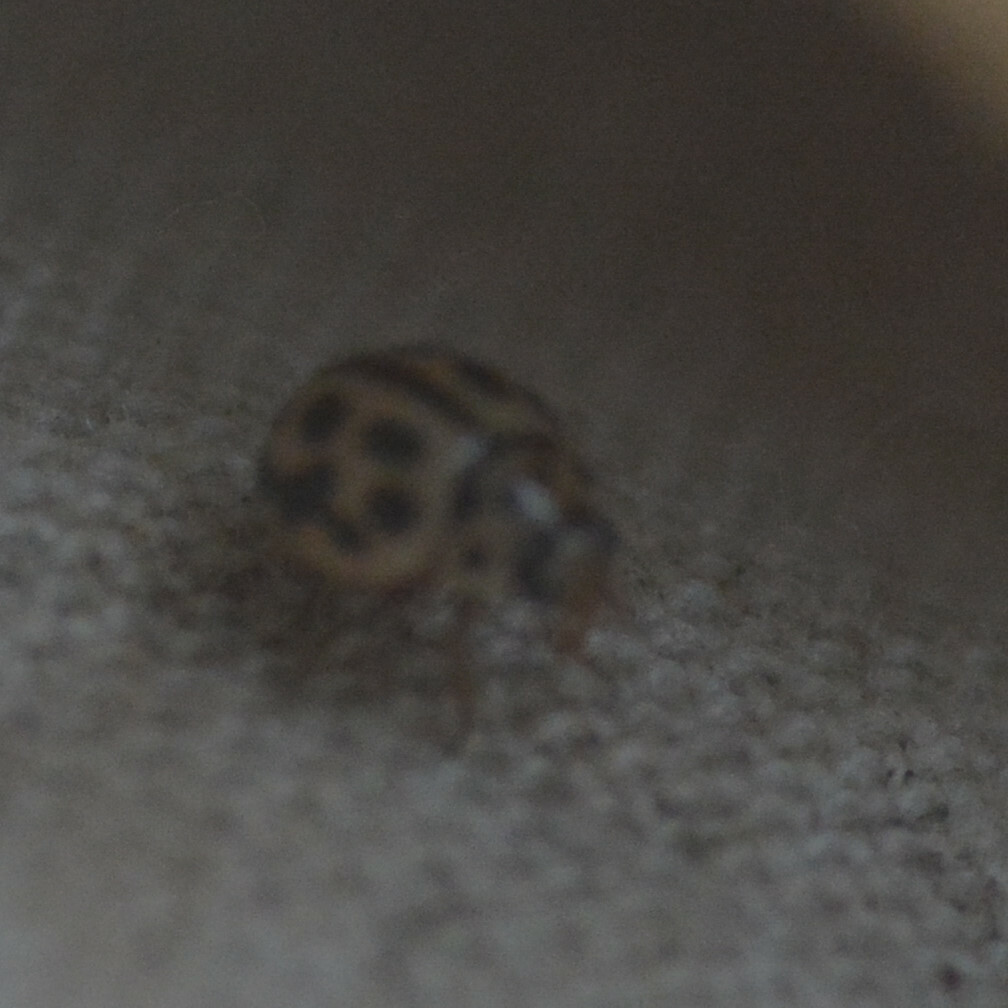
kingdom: Animalia
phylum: Arthropoda
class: Insecta
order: Coleoptera
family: Coccinellidae
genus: Tytthaspis
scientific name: Tytthaspis sedecimpunctata
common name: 16-spot ladybird
